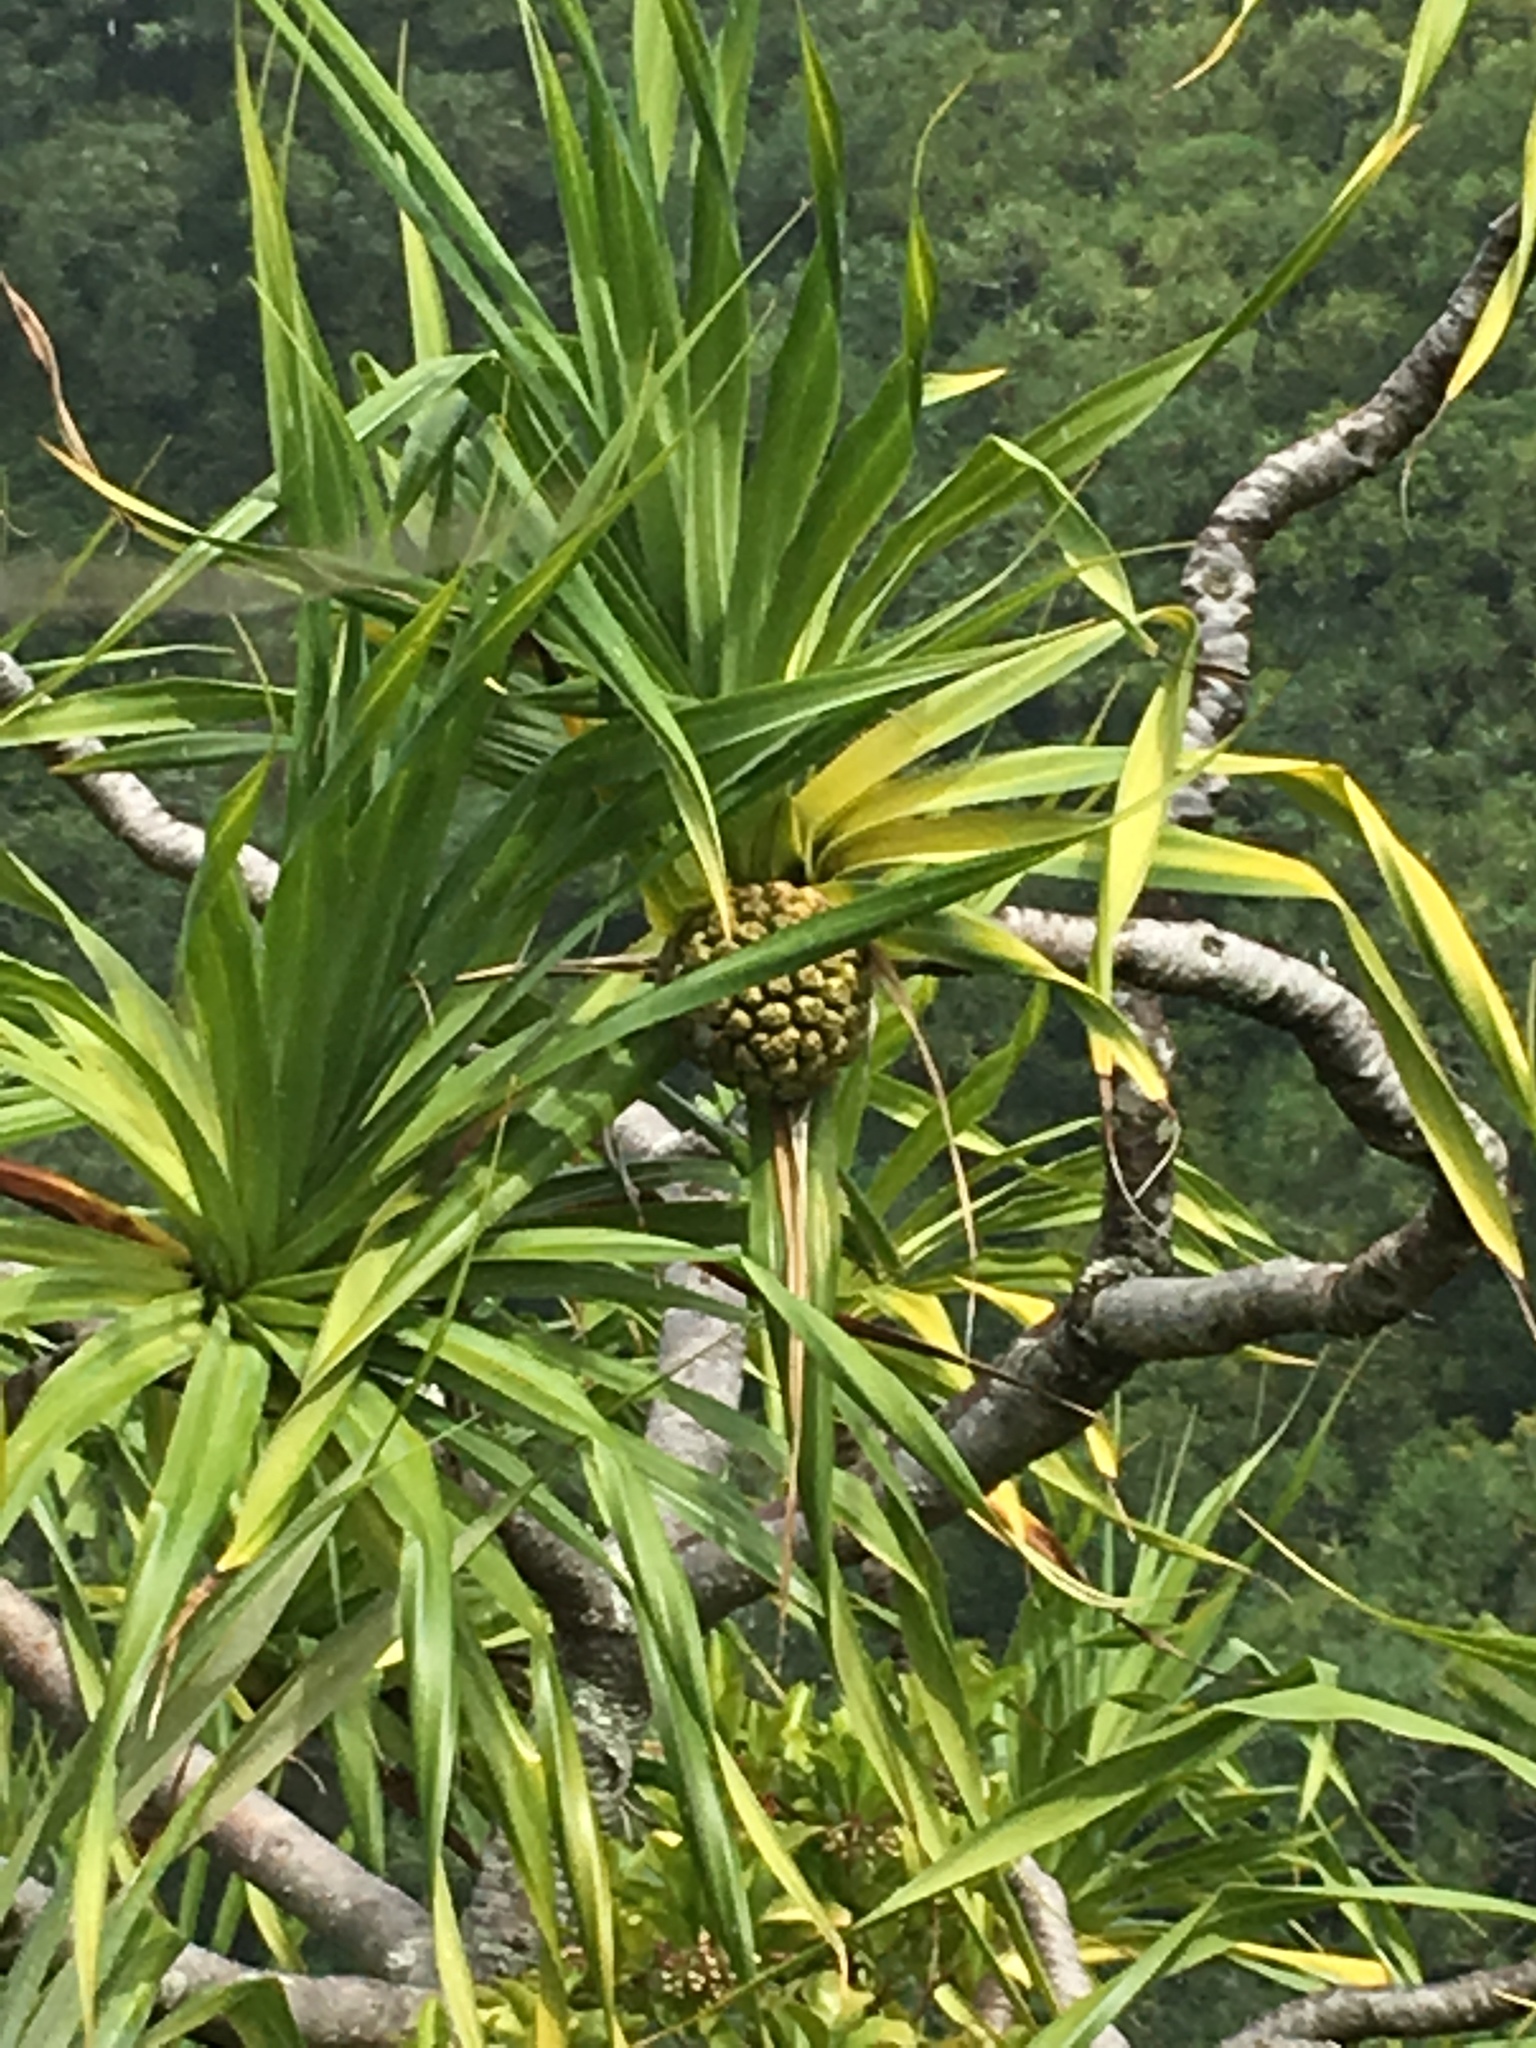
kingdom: Plantae
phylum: Tracheophyta
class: Liliopsida
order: Pandanales
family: Pandanaceae
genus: Pandanus
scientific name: Pandanus tectorius
